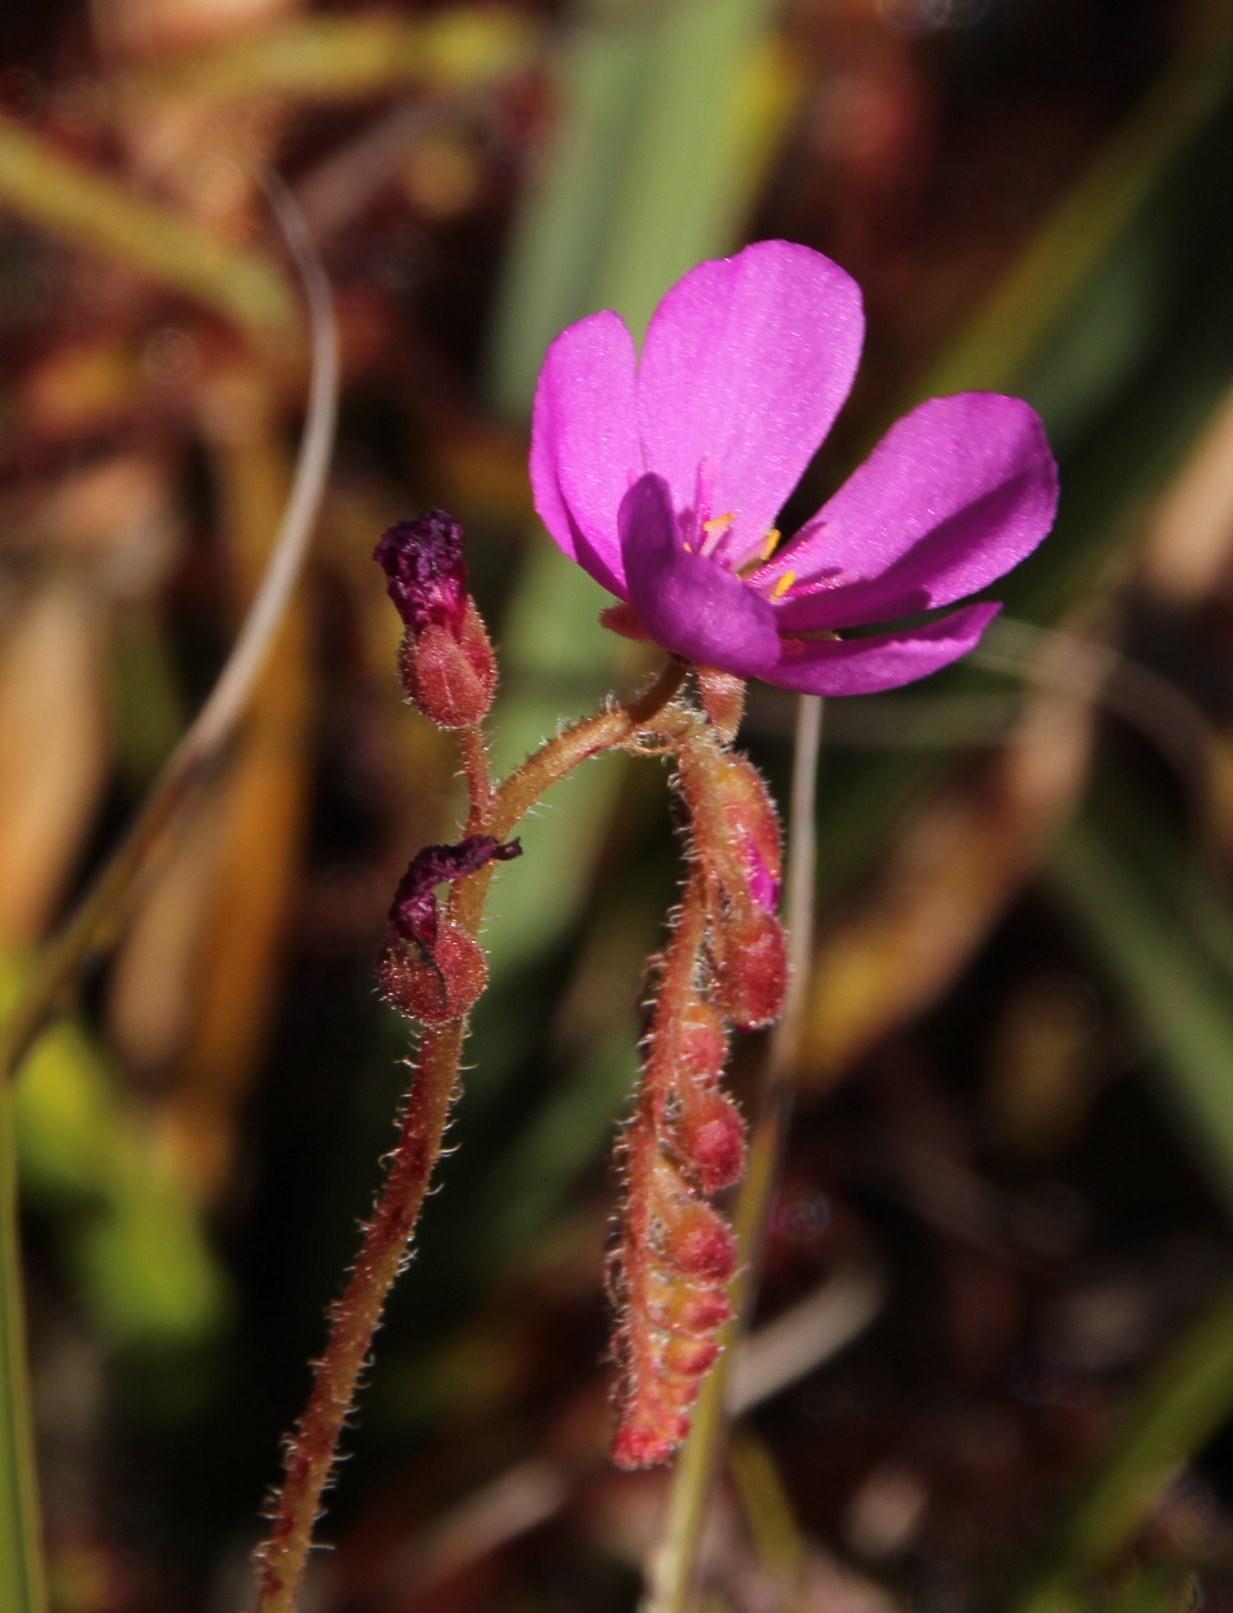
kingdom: Plantae
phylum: Tracheophyta
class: Magnoliopsida
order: Caryophyllales
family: Droseraceae
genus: Drosera
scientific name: Drosera capensis
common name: Cape sundew
